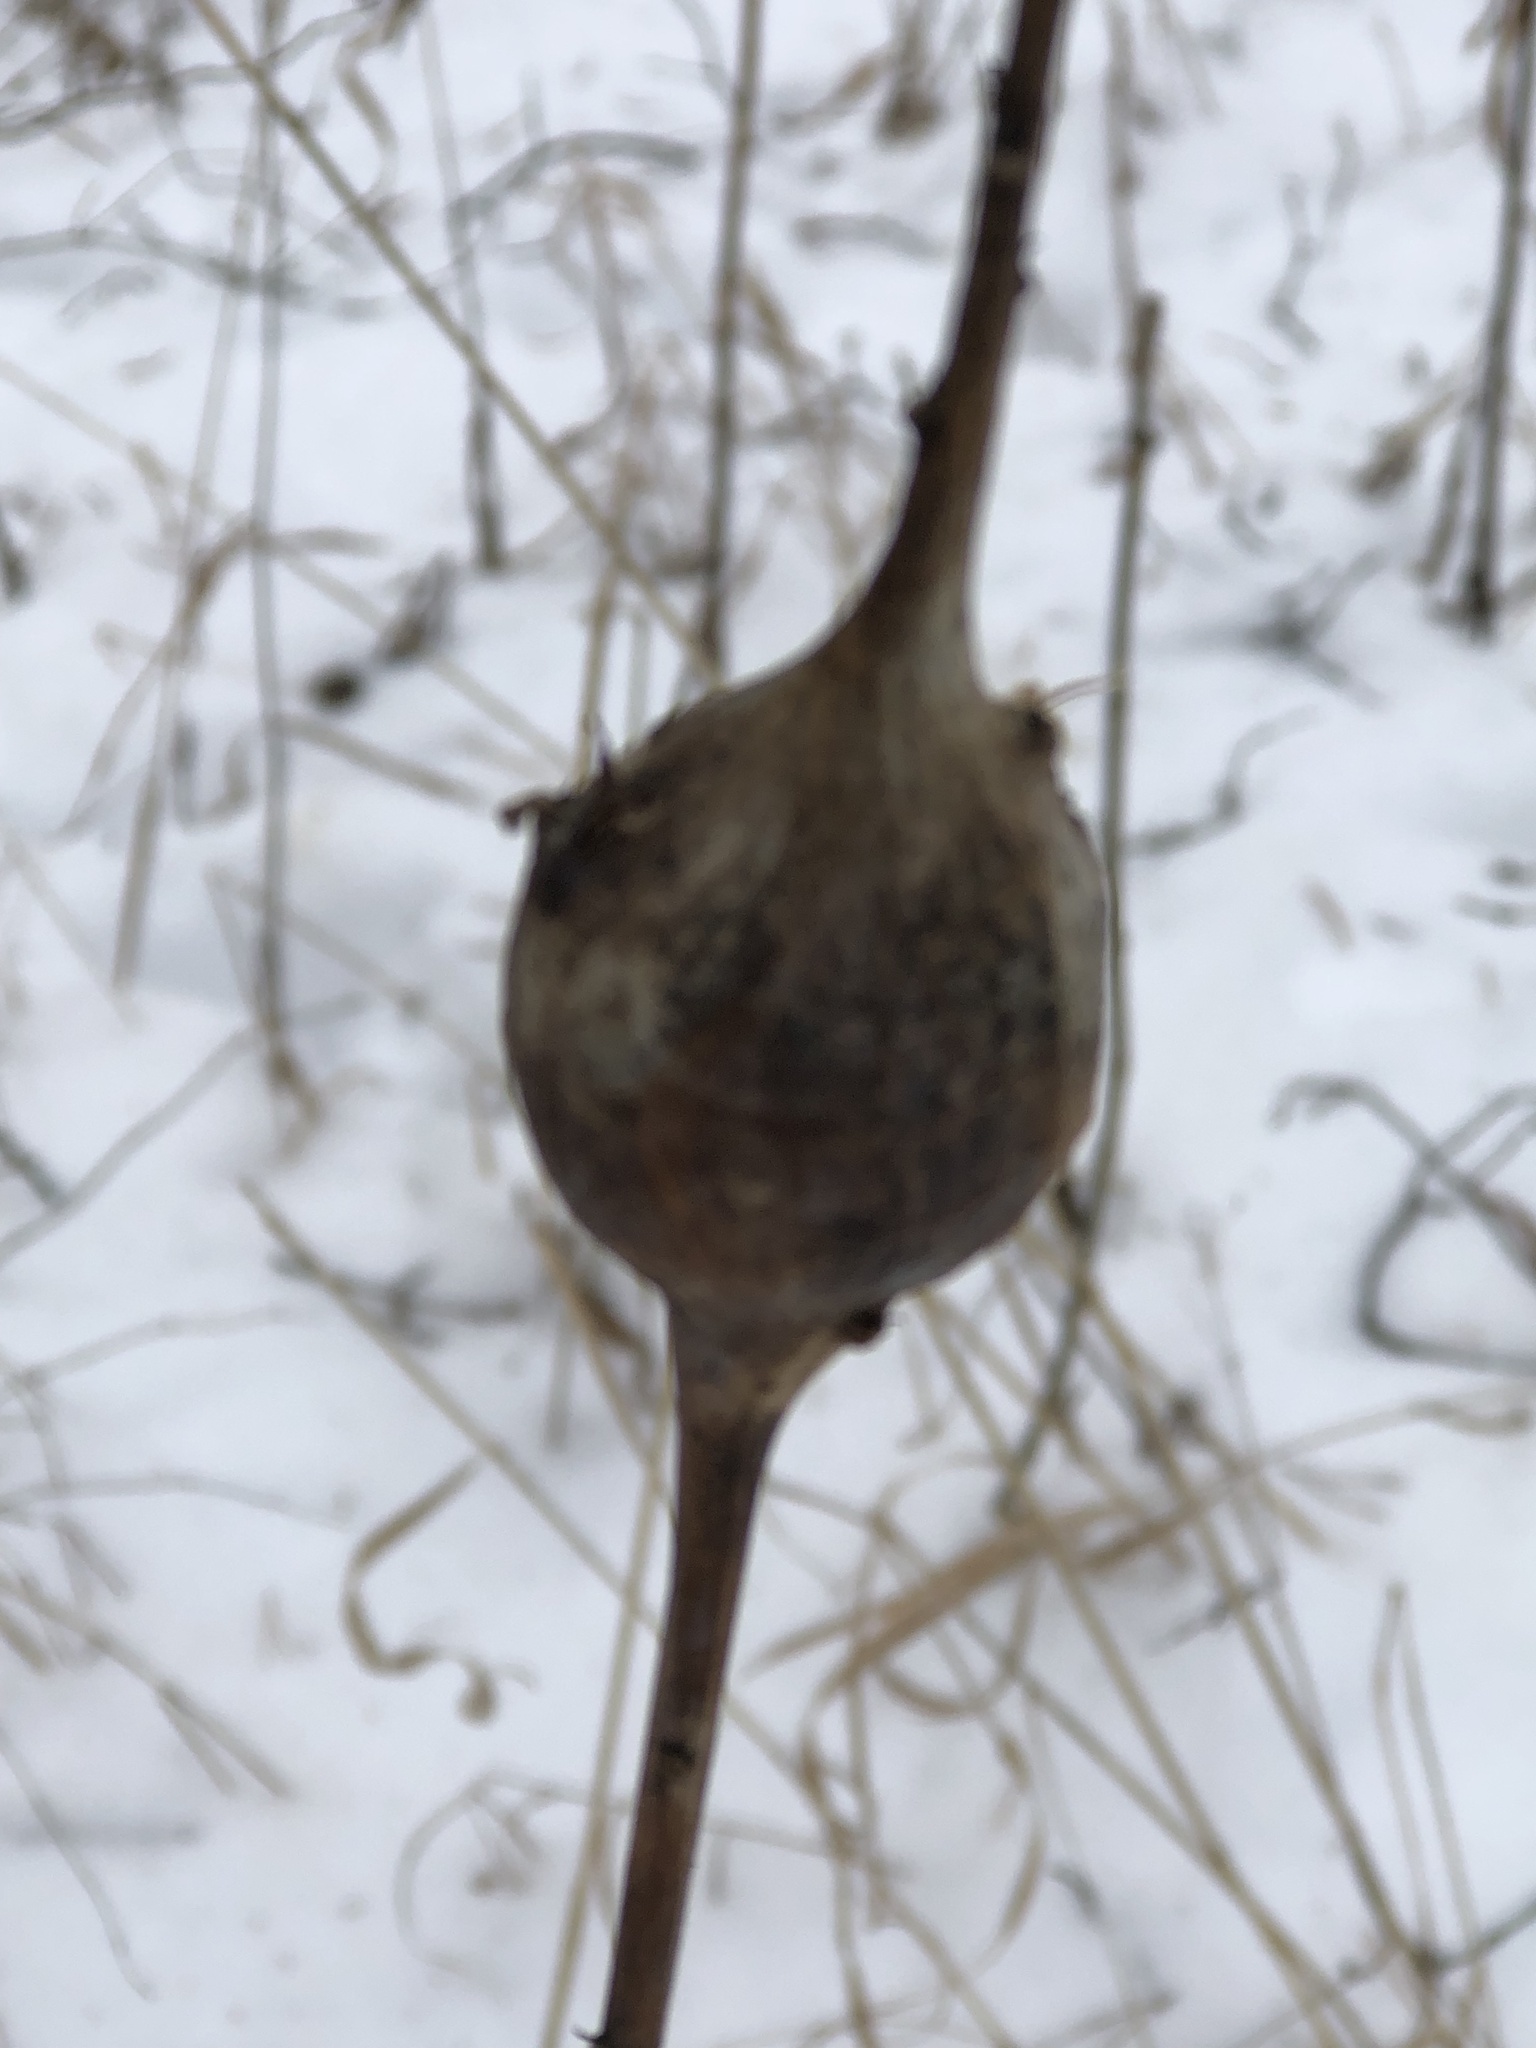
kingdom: Animalia
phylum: Arthropoda
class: Insecta
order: Diptera
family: Tephritidae
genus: Eurosta
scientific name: Eurosta solidaginis
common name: Goldenrod gall fly
